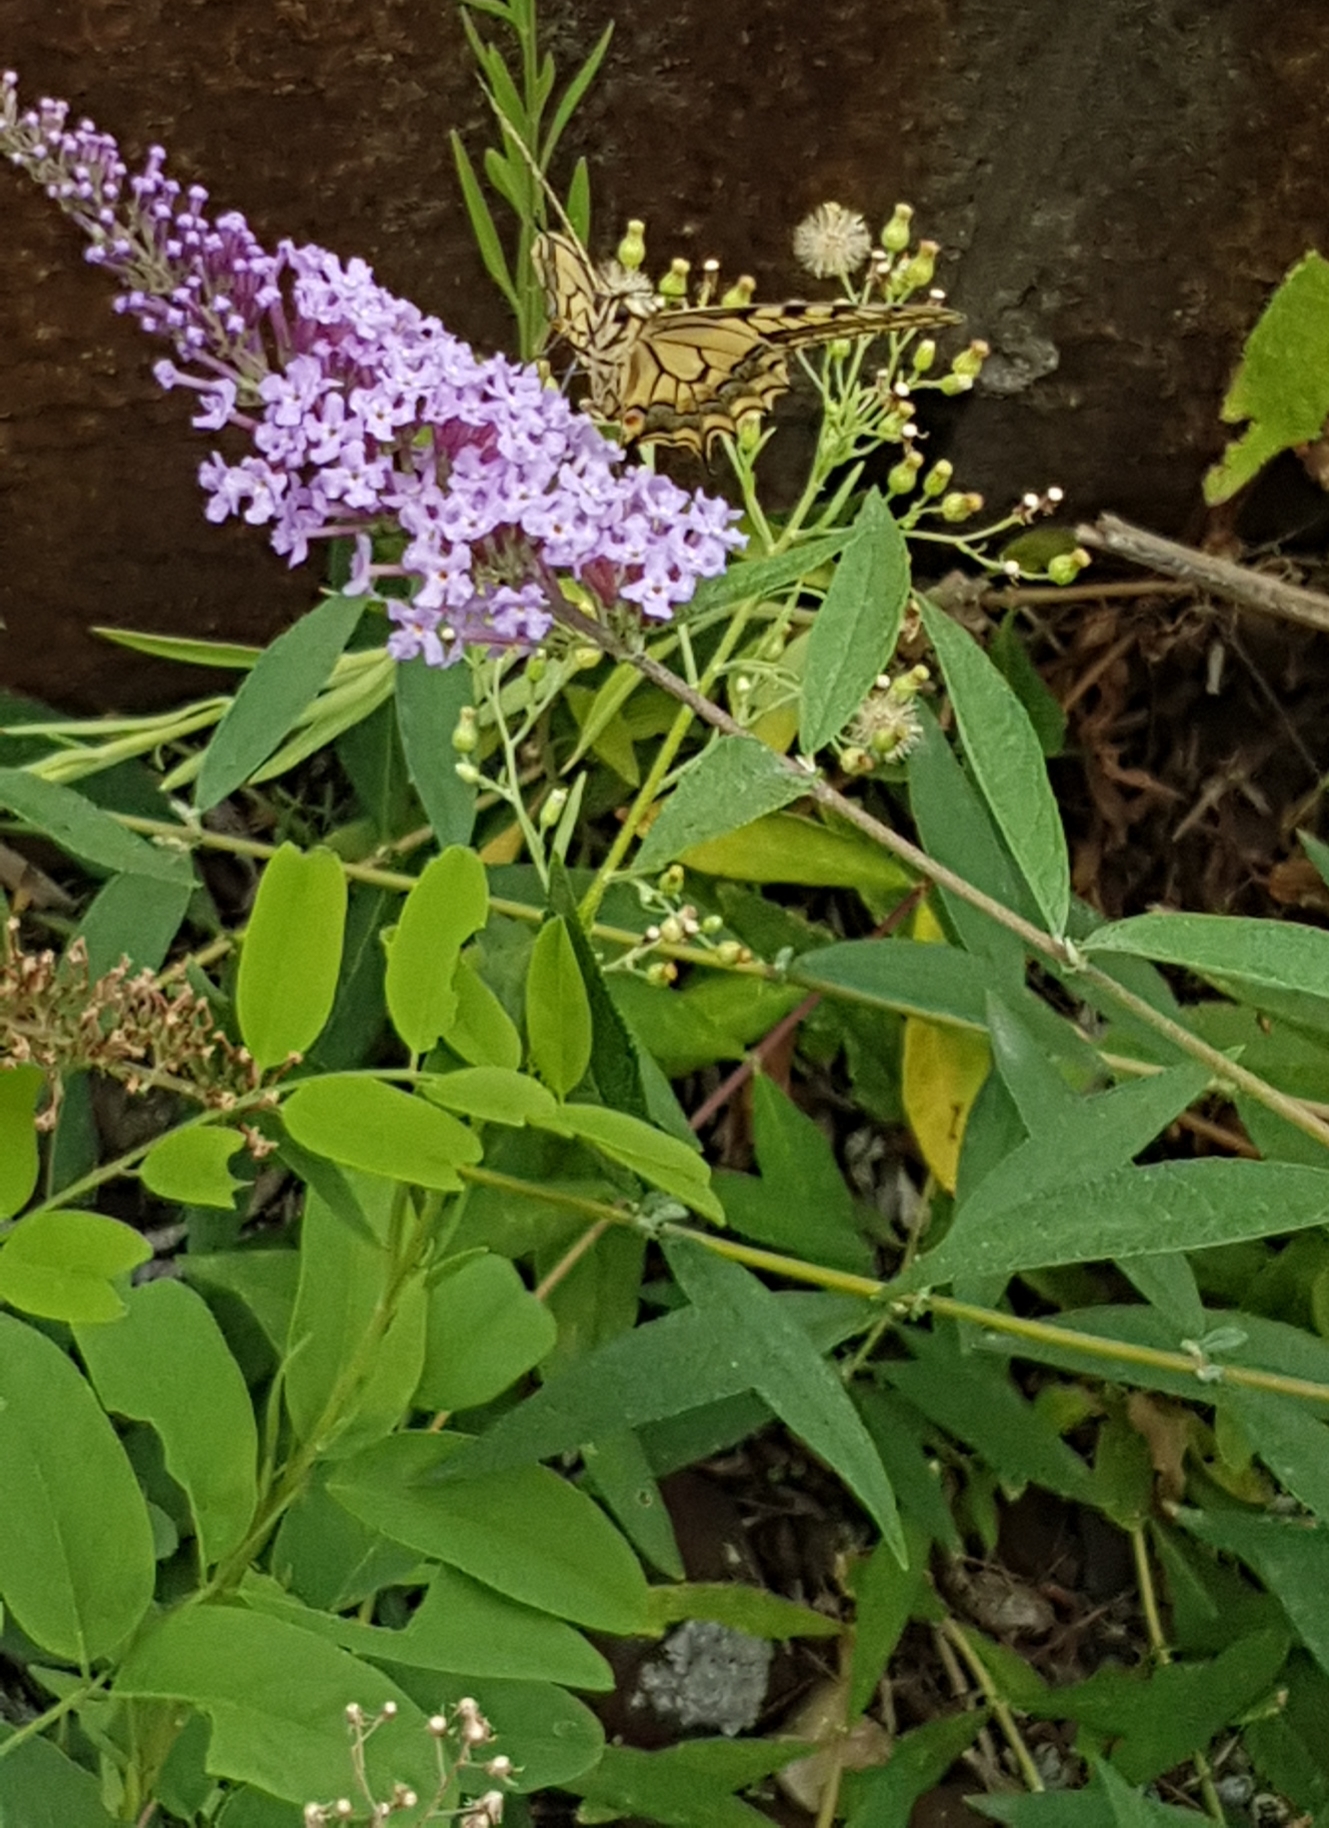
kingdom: Plantae
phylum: Tracheophyta
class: Magnoliopsida
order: Lamiales
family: Scrophulariaceae
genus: Buddleja
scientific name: Buddleja davidii
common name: Butterfly-bush
